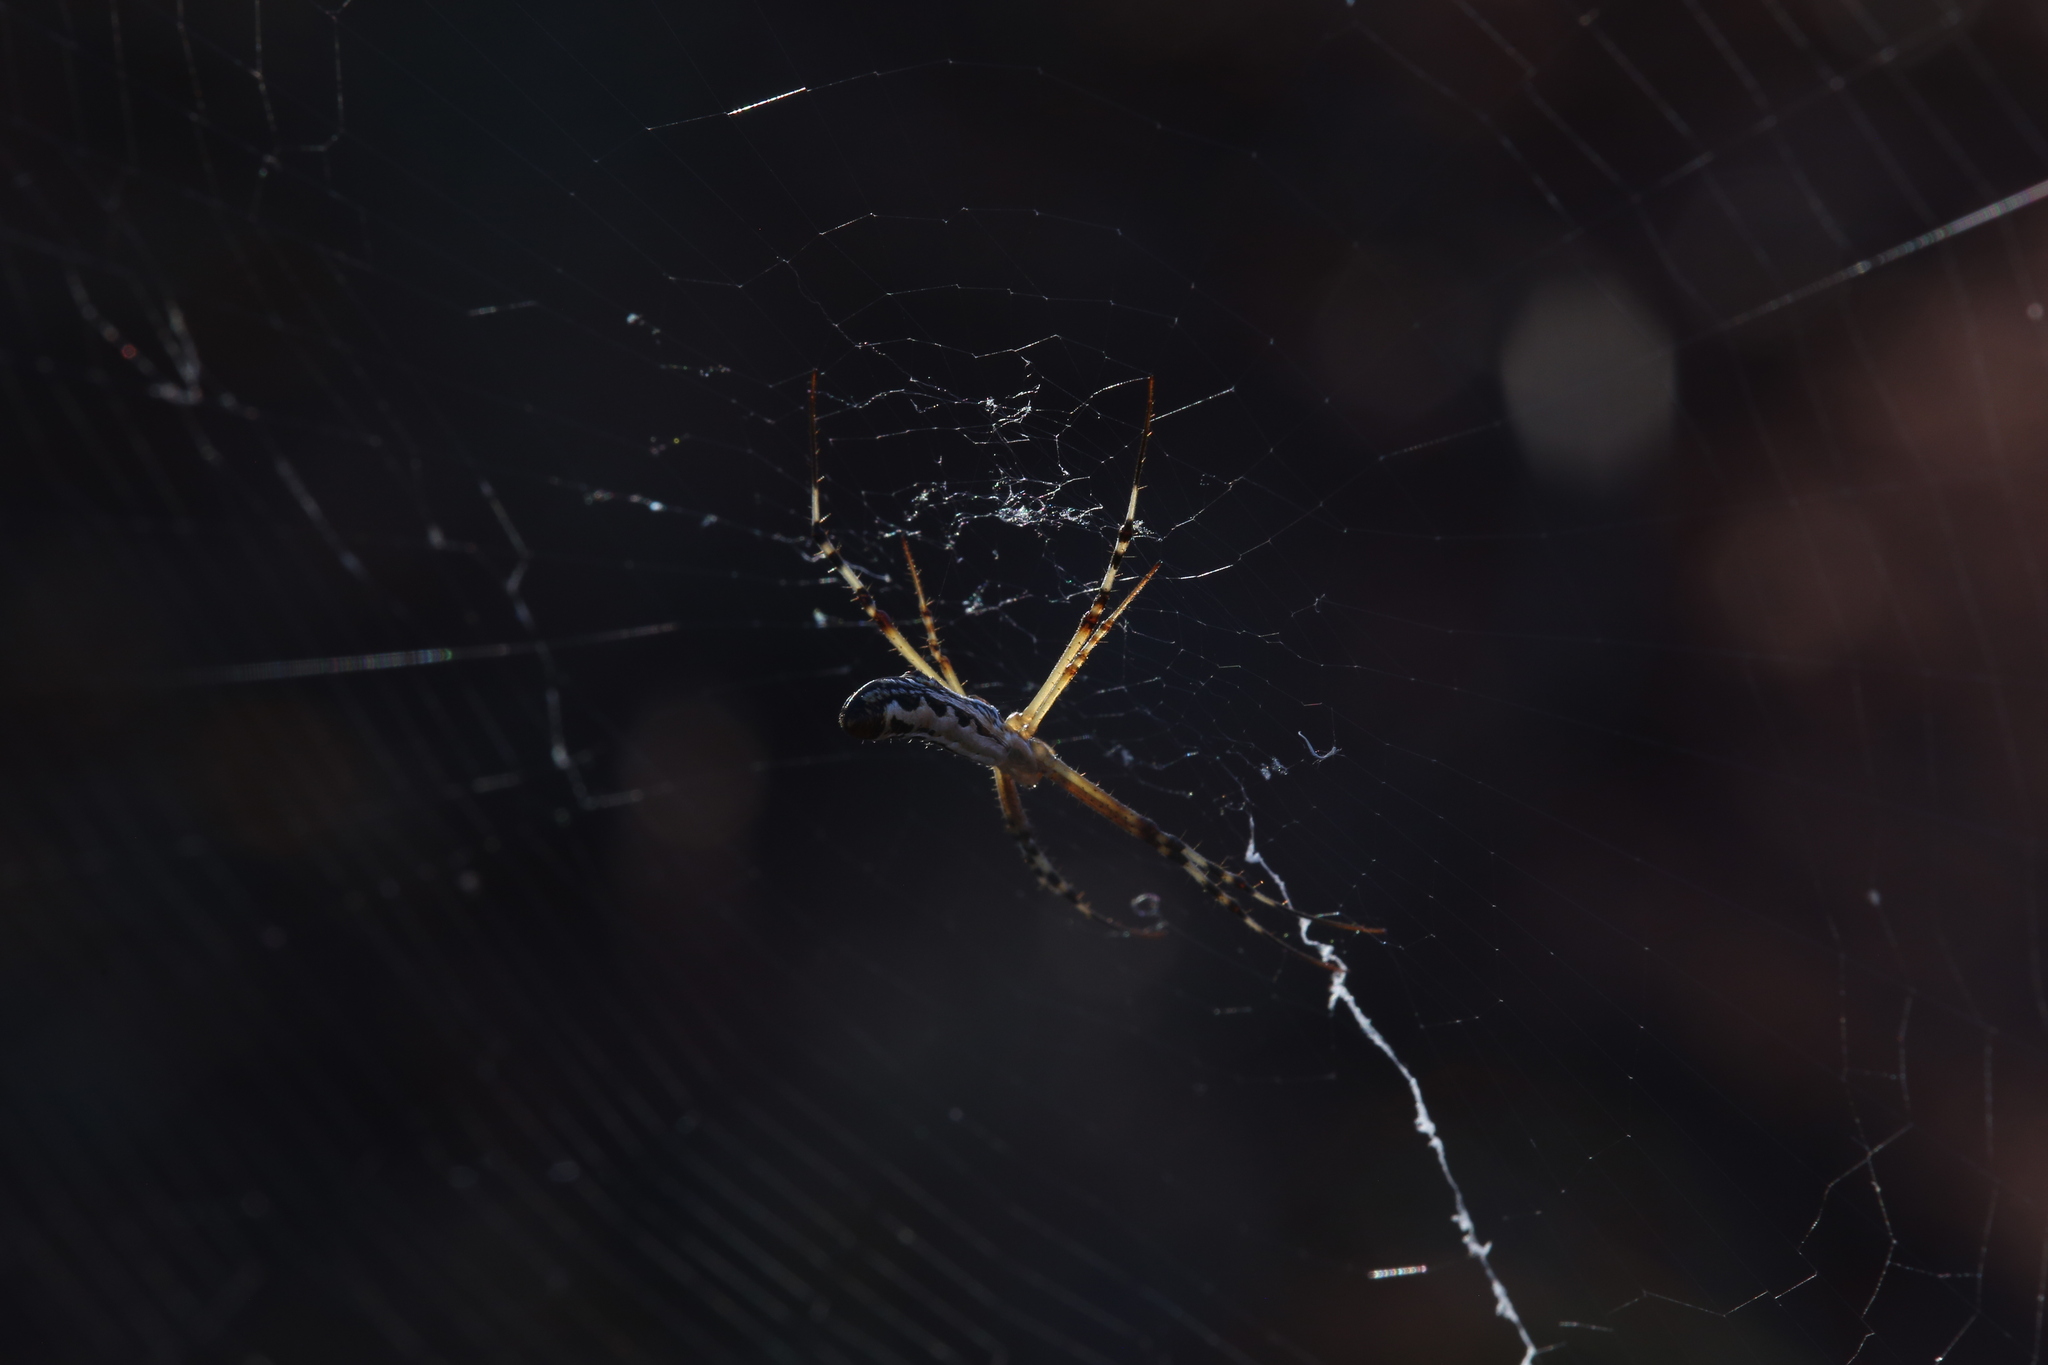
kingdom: Animalia
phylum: Arthropoda
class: Arachnida
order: Araneae
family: Araneidae
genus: Argiope
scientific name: Argiope protensa
